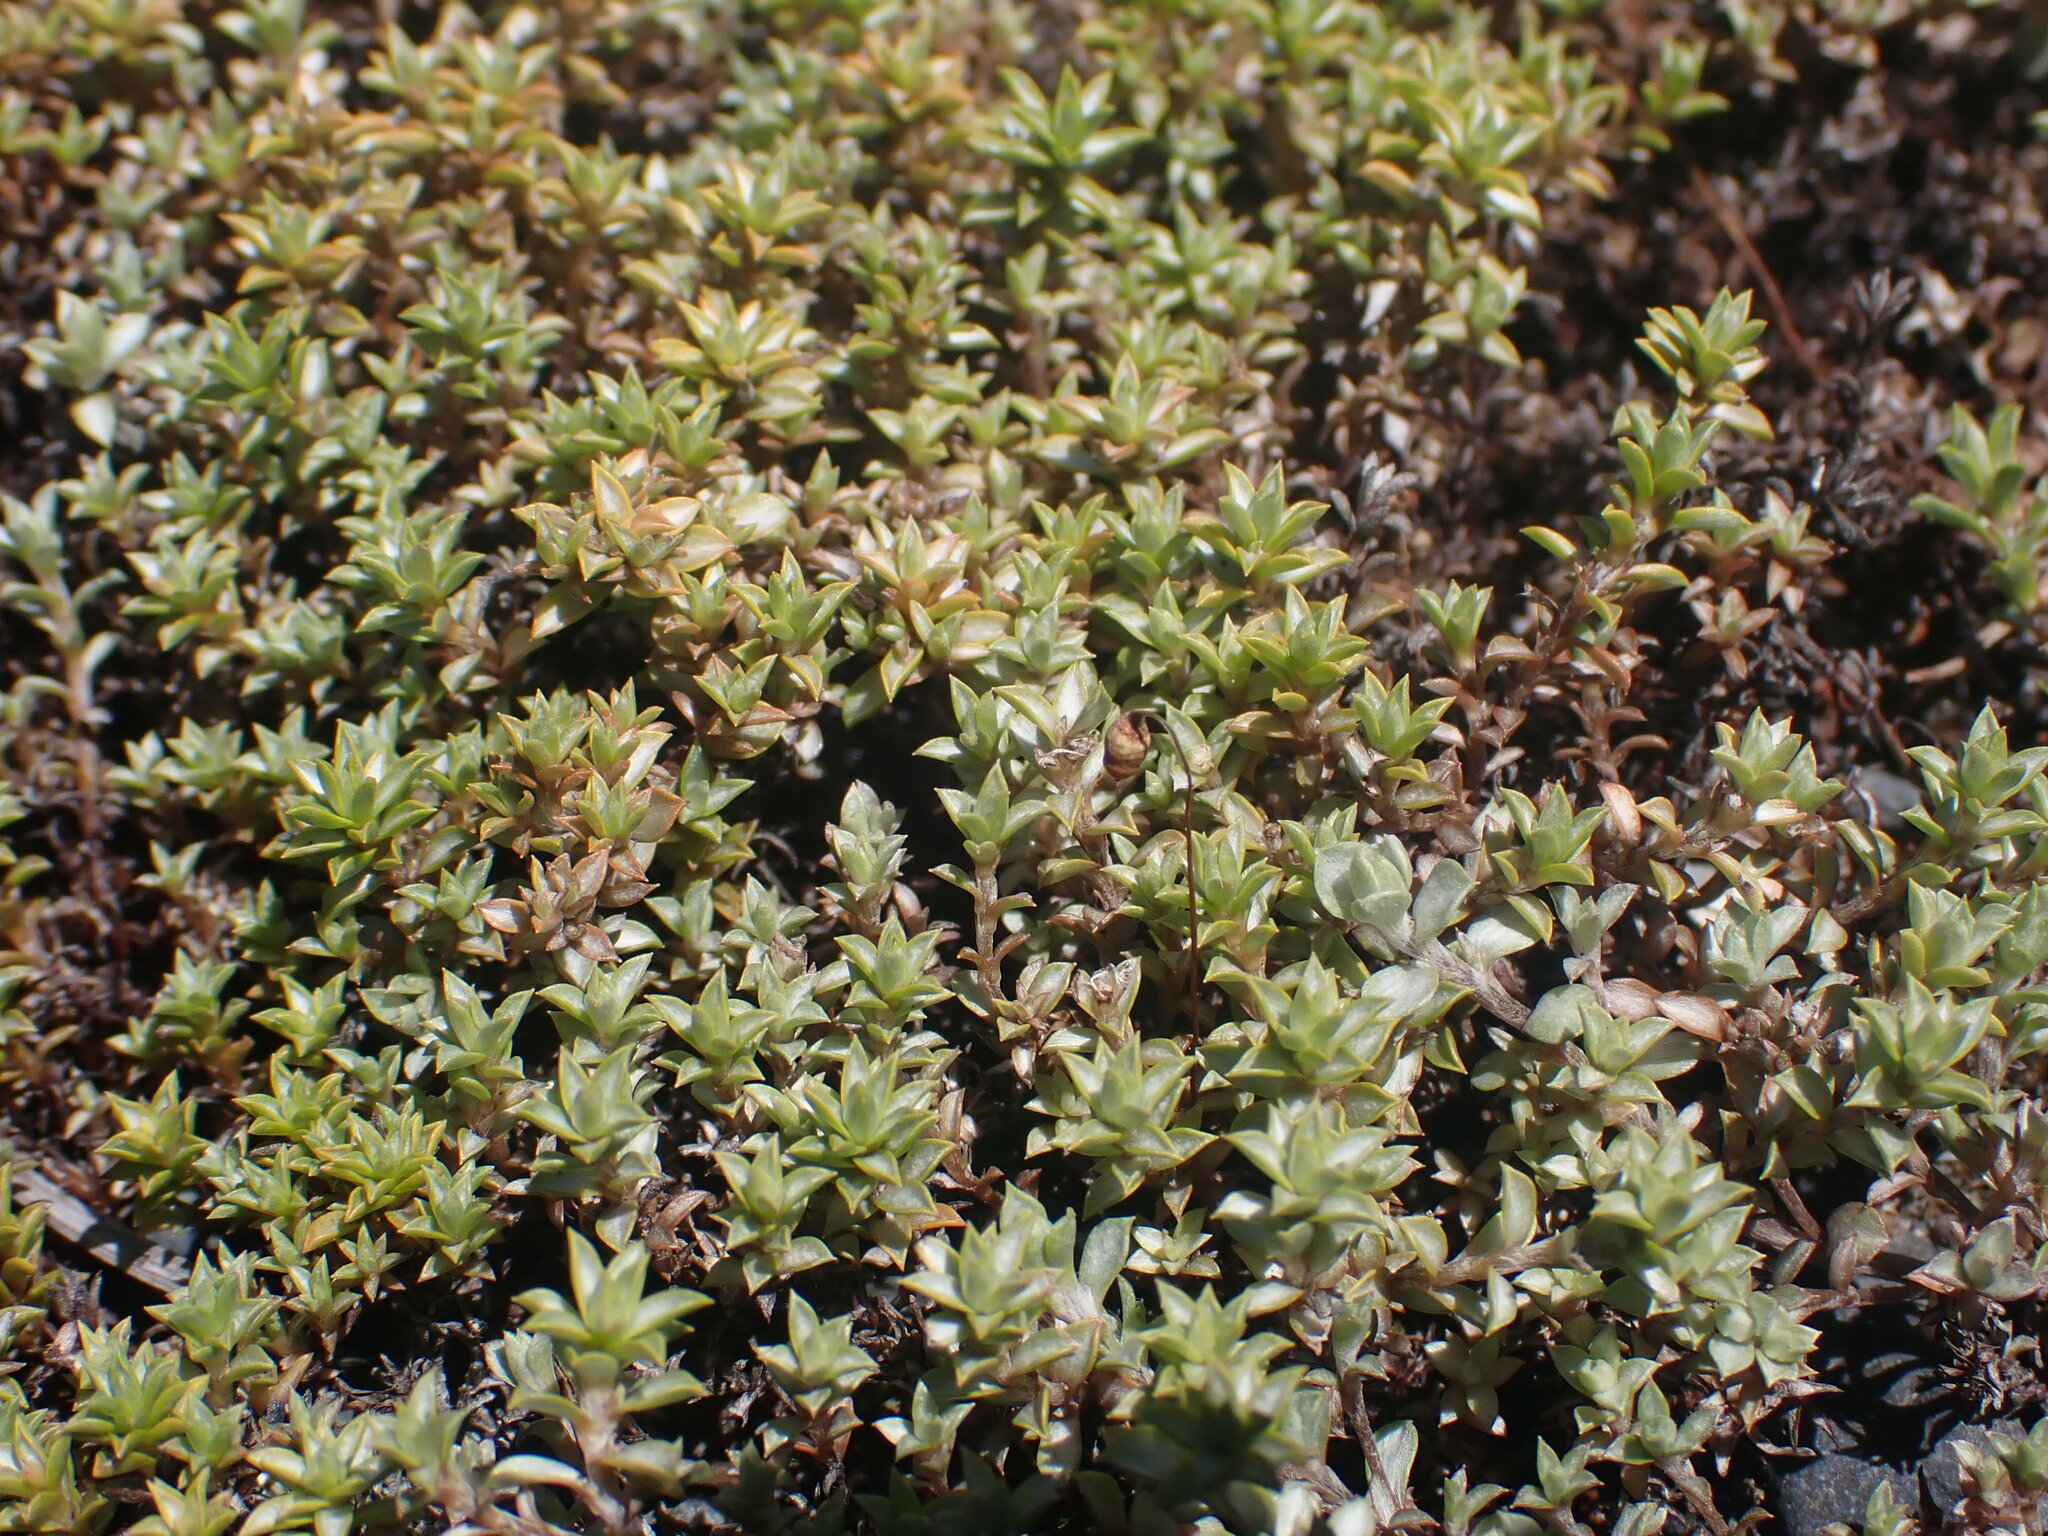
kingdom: Plantae
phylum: Tracheophyta
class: Magnoliopsida
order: Asterales
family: Asteraceae
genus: Raoulia
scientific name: Raoulia tenuicaulis
